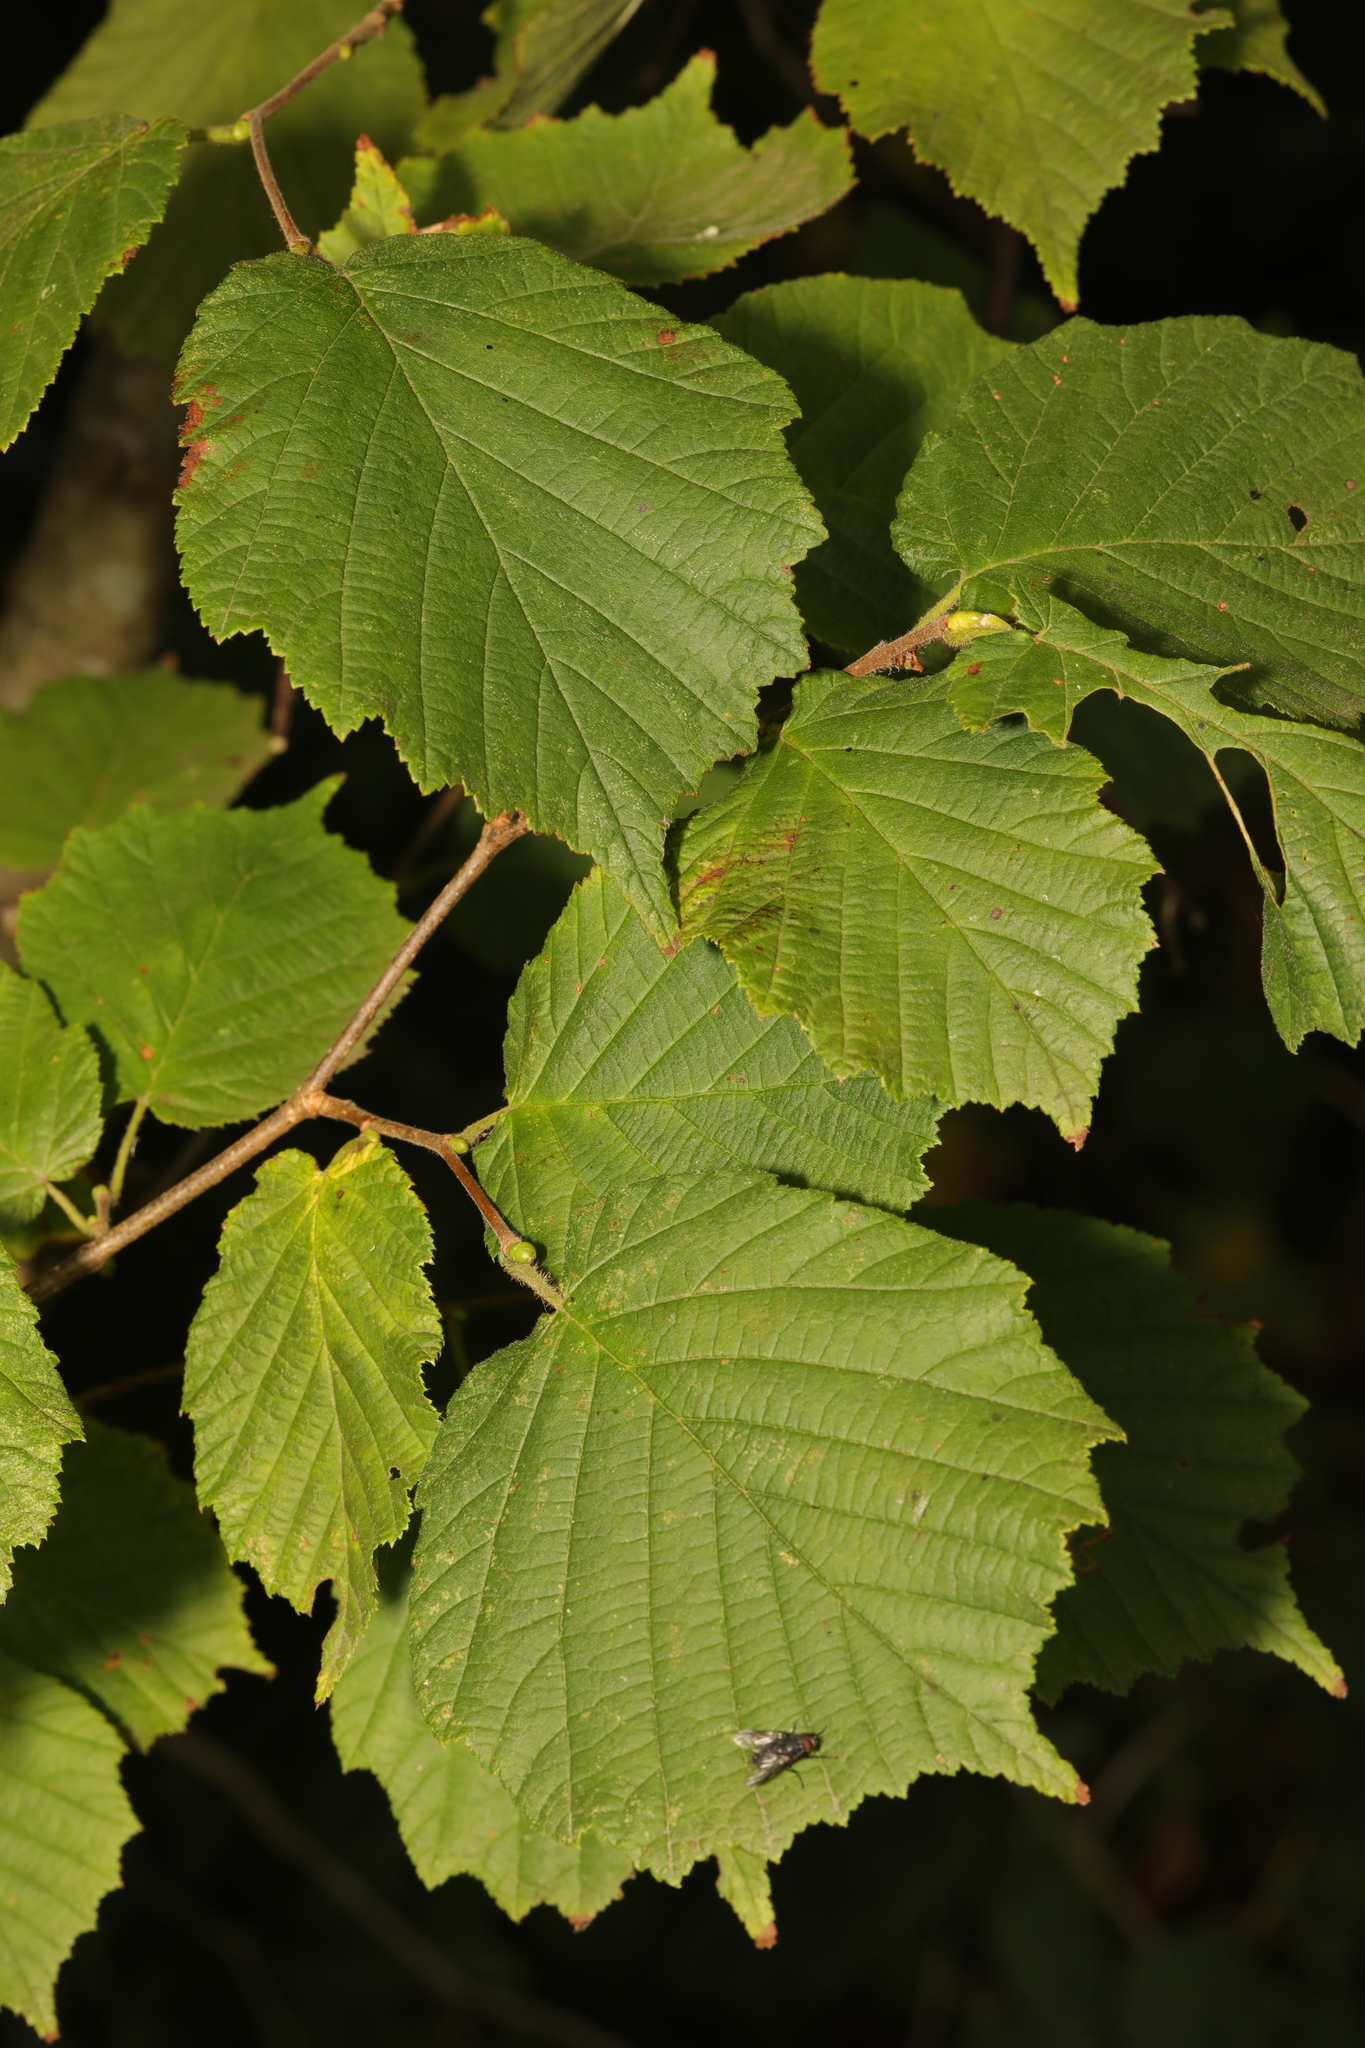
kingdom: Plantae
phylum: Tracheophyta
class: Magnoliopsida
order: Fagales
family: Betulaceae
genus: Corylus
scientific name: Corylus avellana
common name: European hazel
